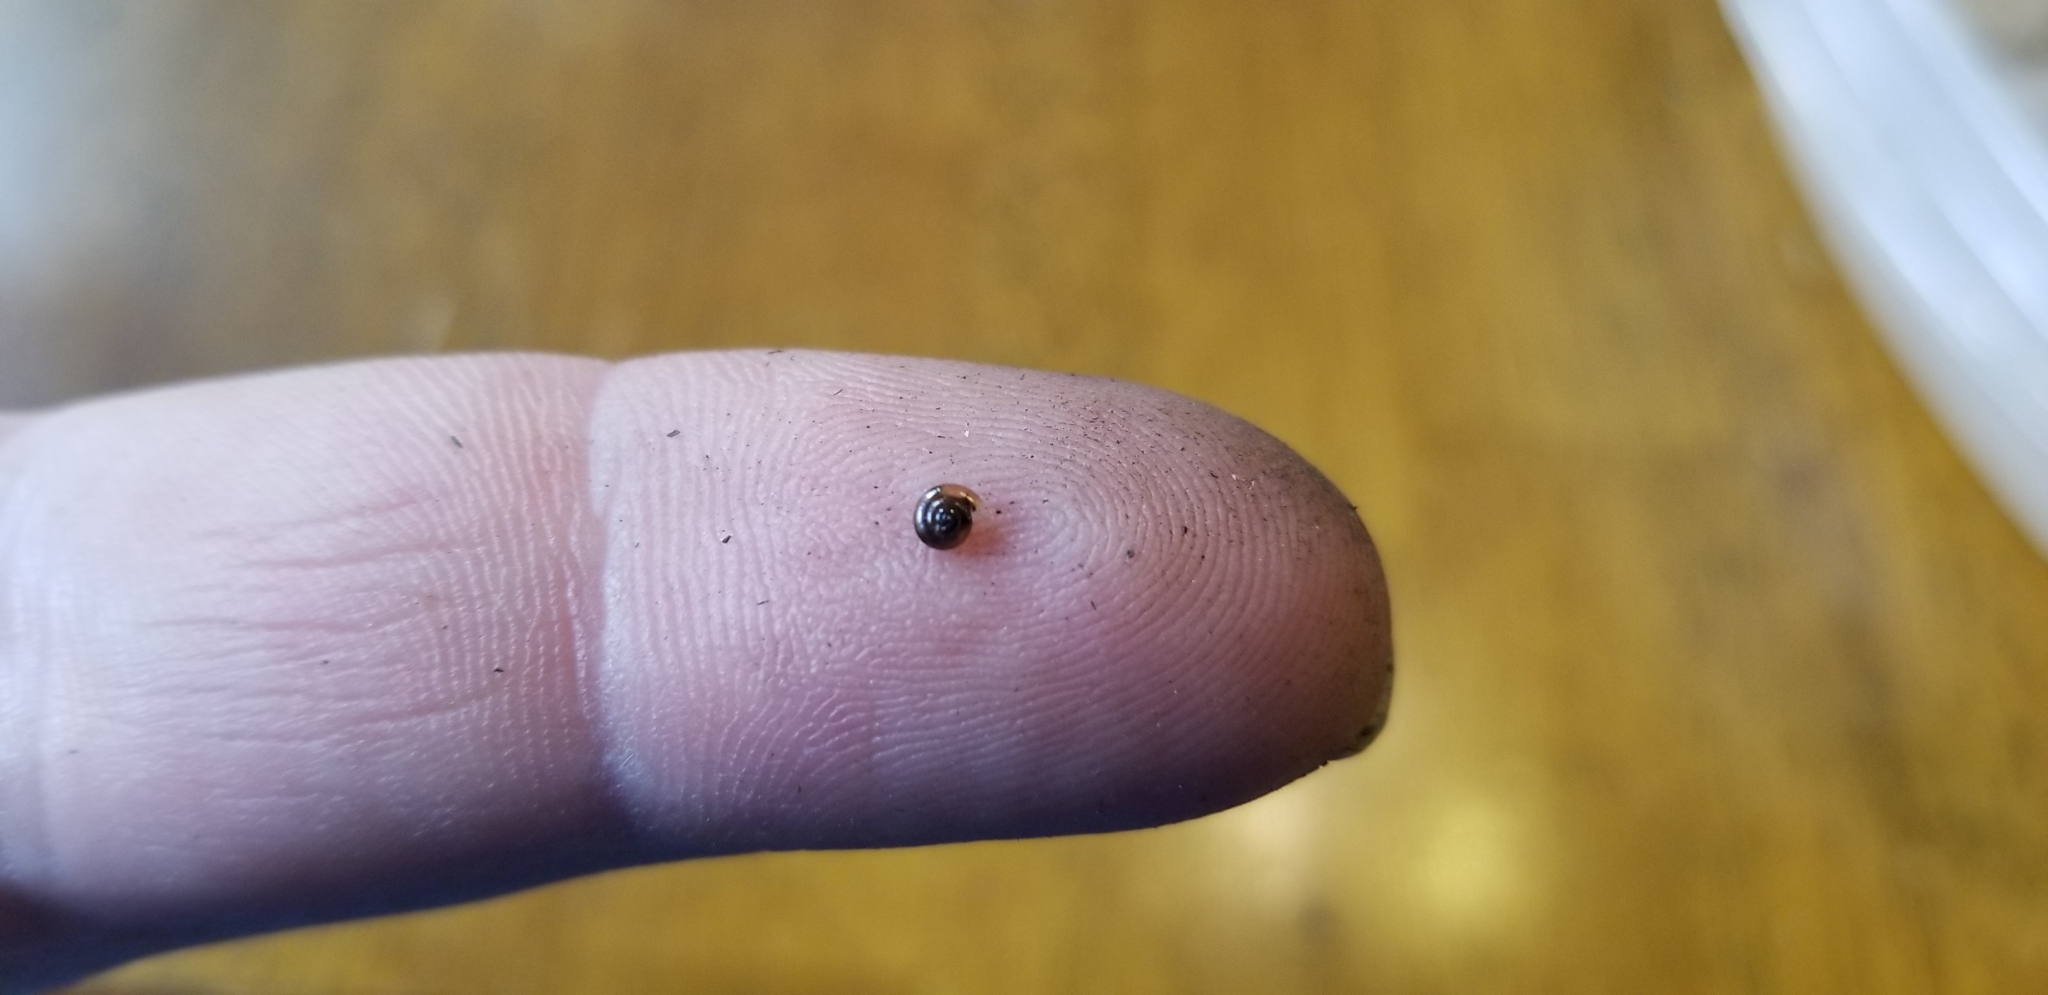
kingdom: Animalia
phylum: Mollusca
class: Gastropoda
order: Stylommatophora
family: Gastrodontidae
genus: Zonitoides
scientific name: Zonitoides arboreus
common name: Quick gloss
